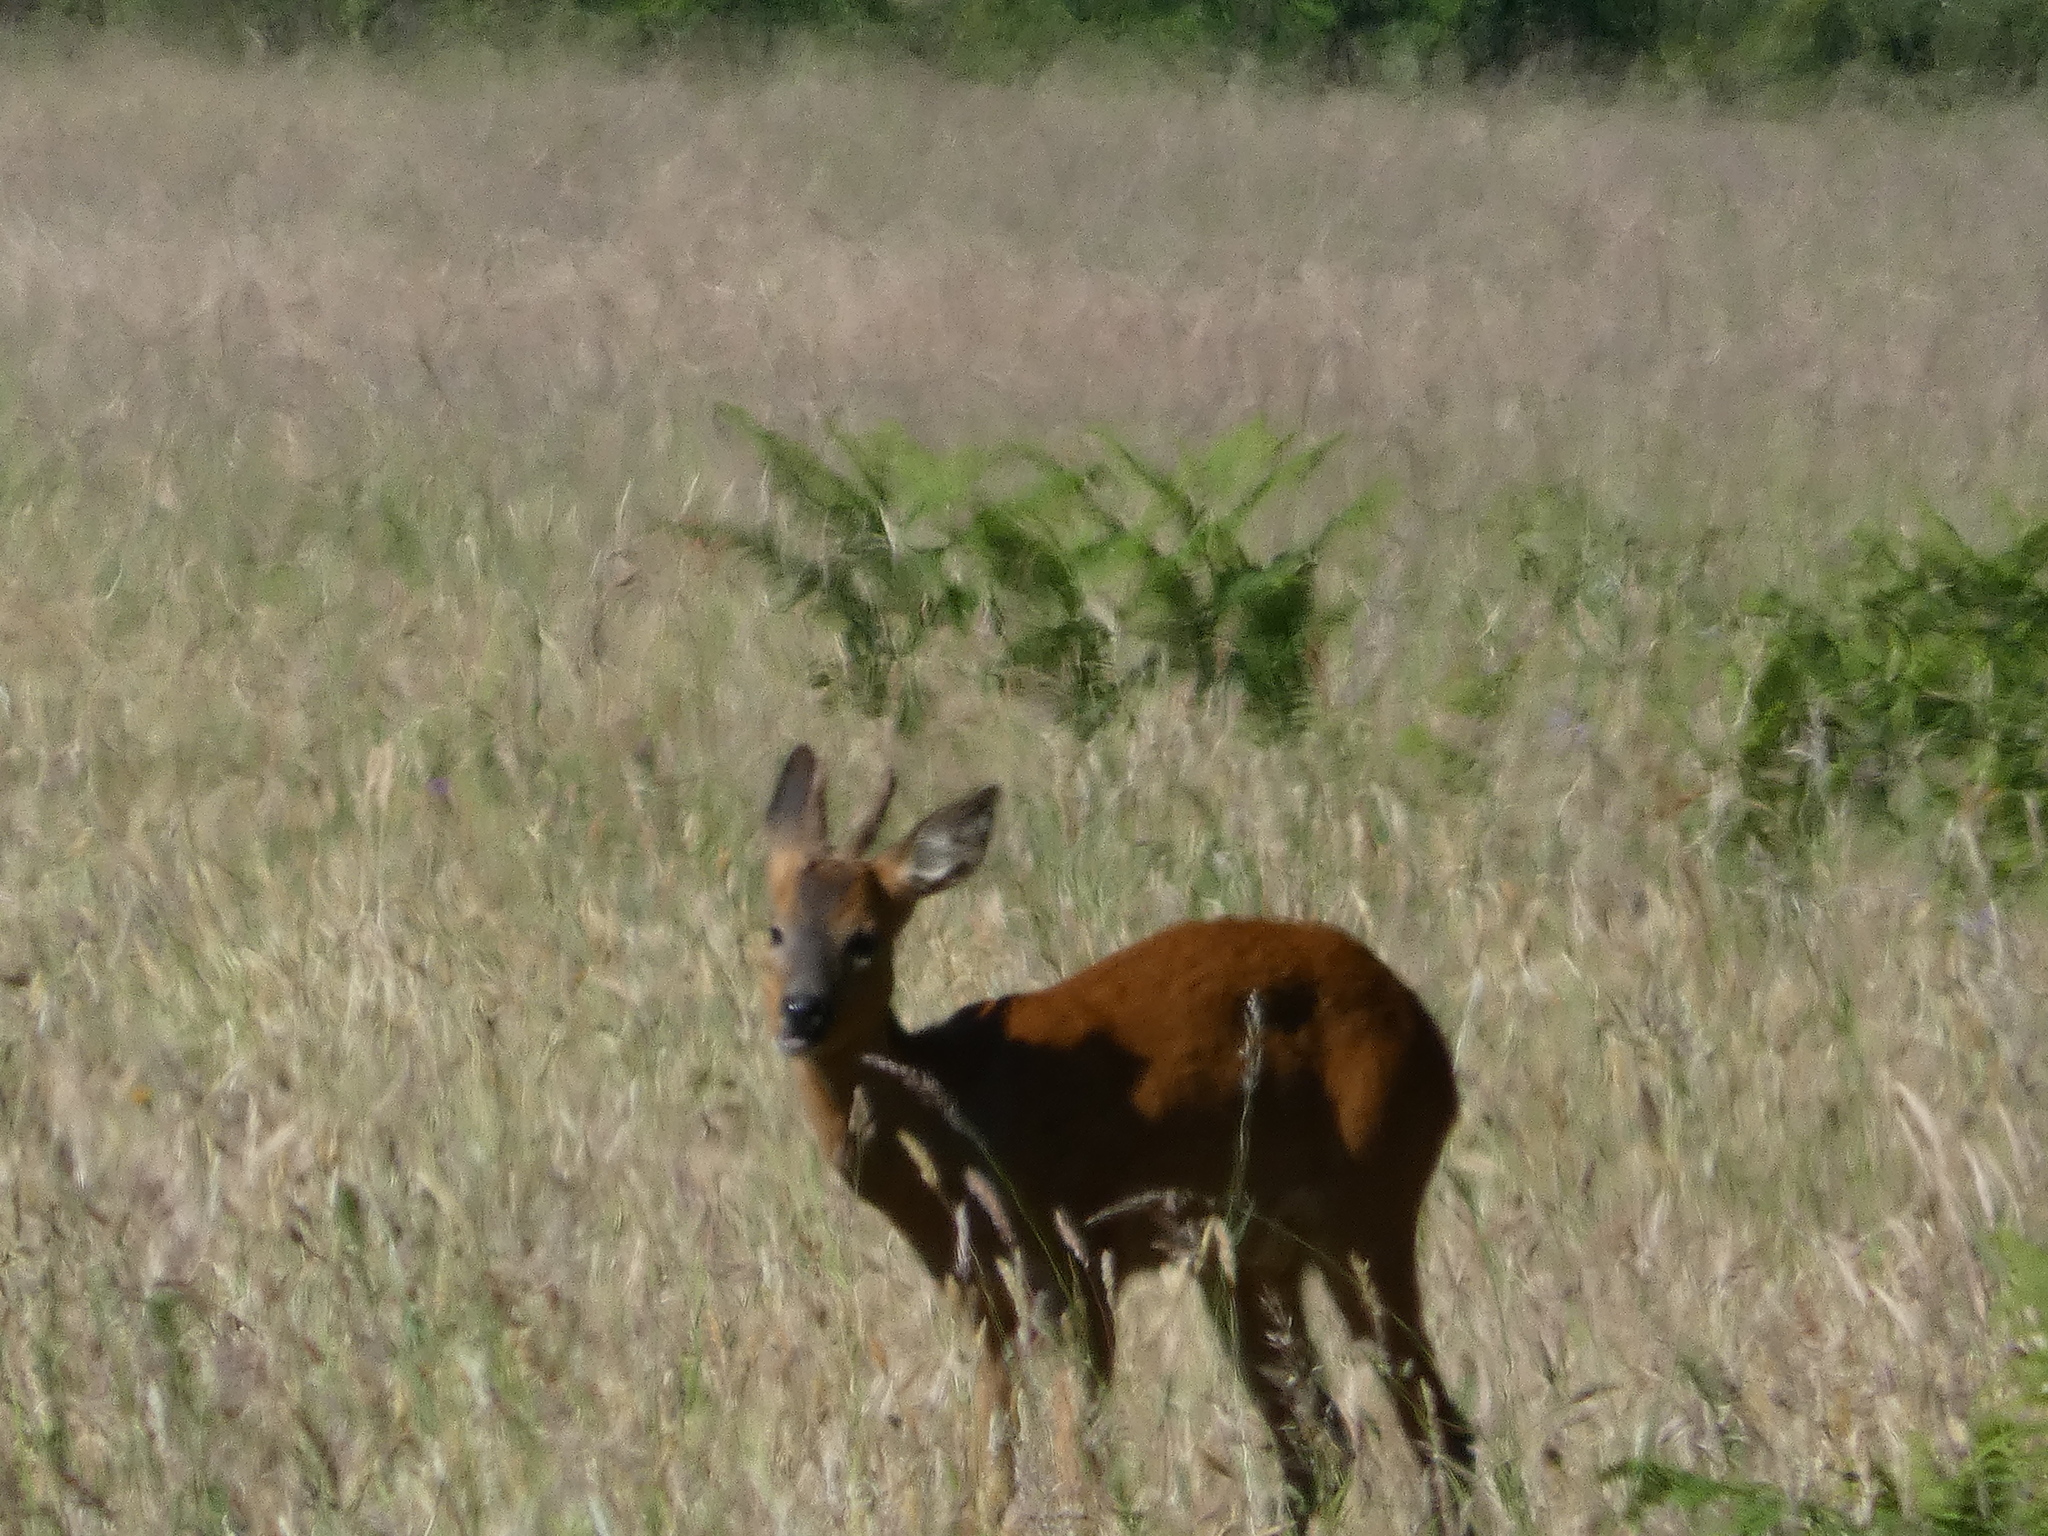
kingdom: Animalia
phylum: Chordata
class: Mammalia
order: Artiodactyla
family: Cervidae
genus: Capreolus
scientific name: Capreolus capreolus
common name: Western roe deer
